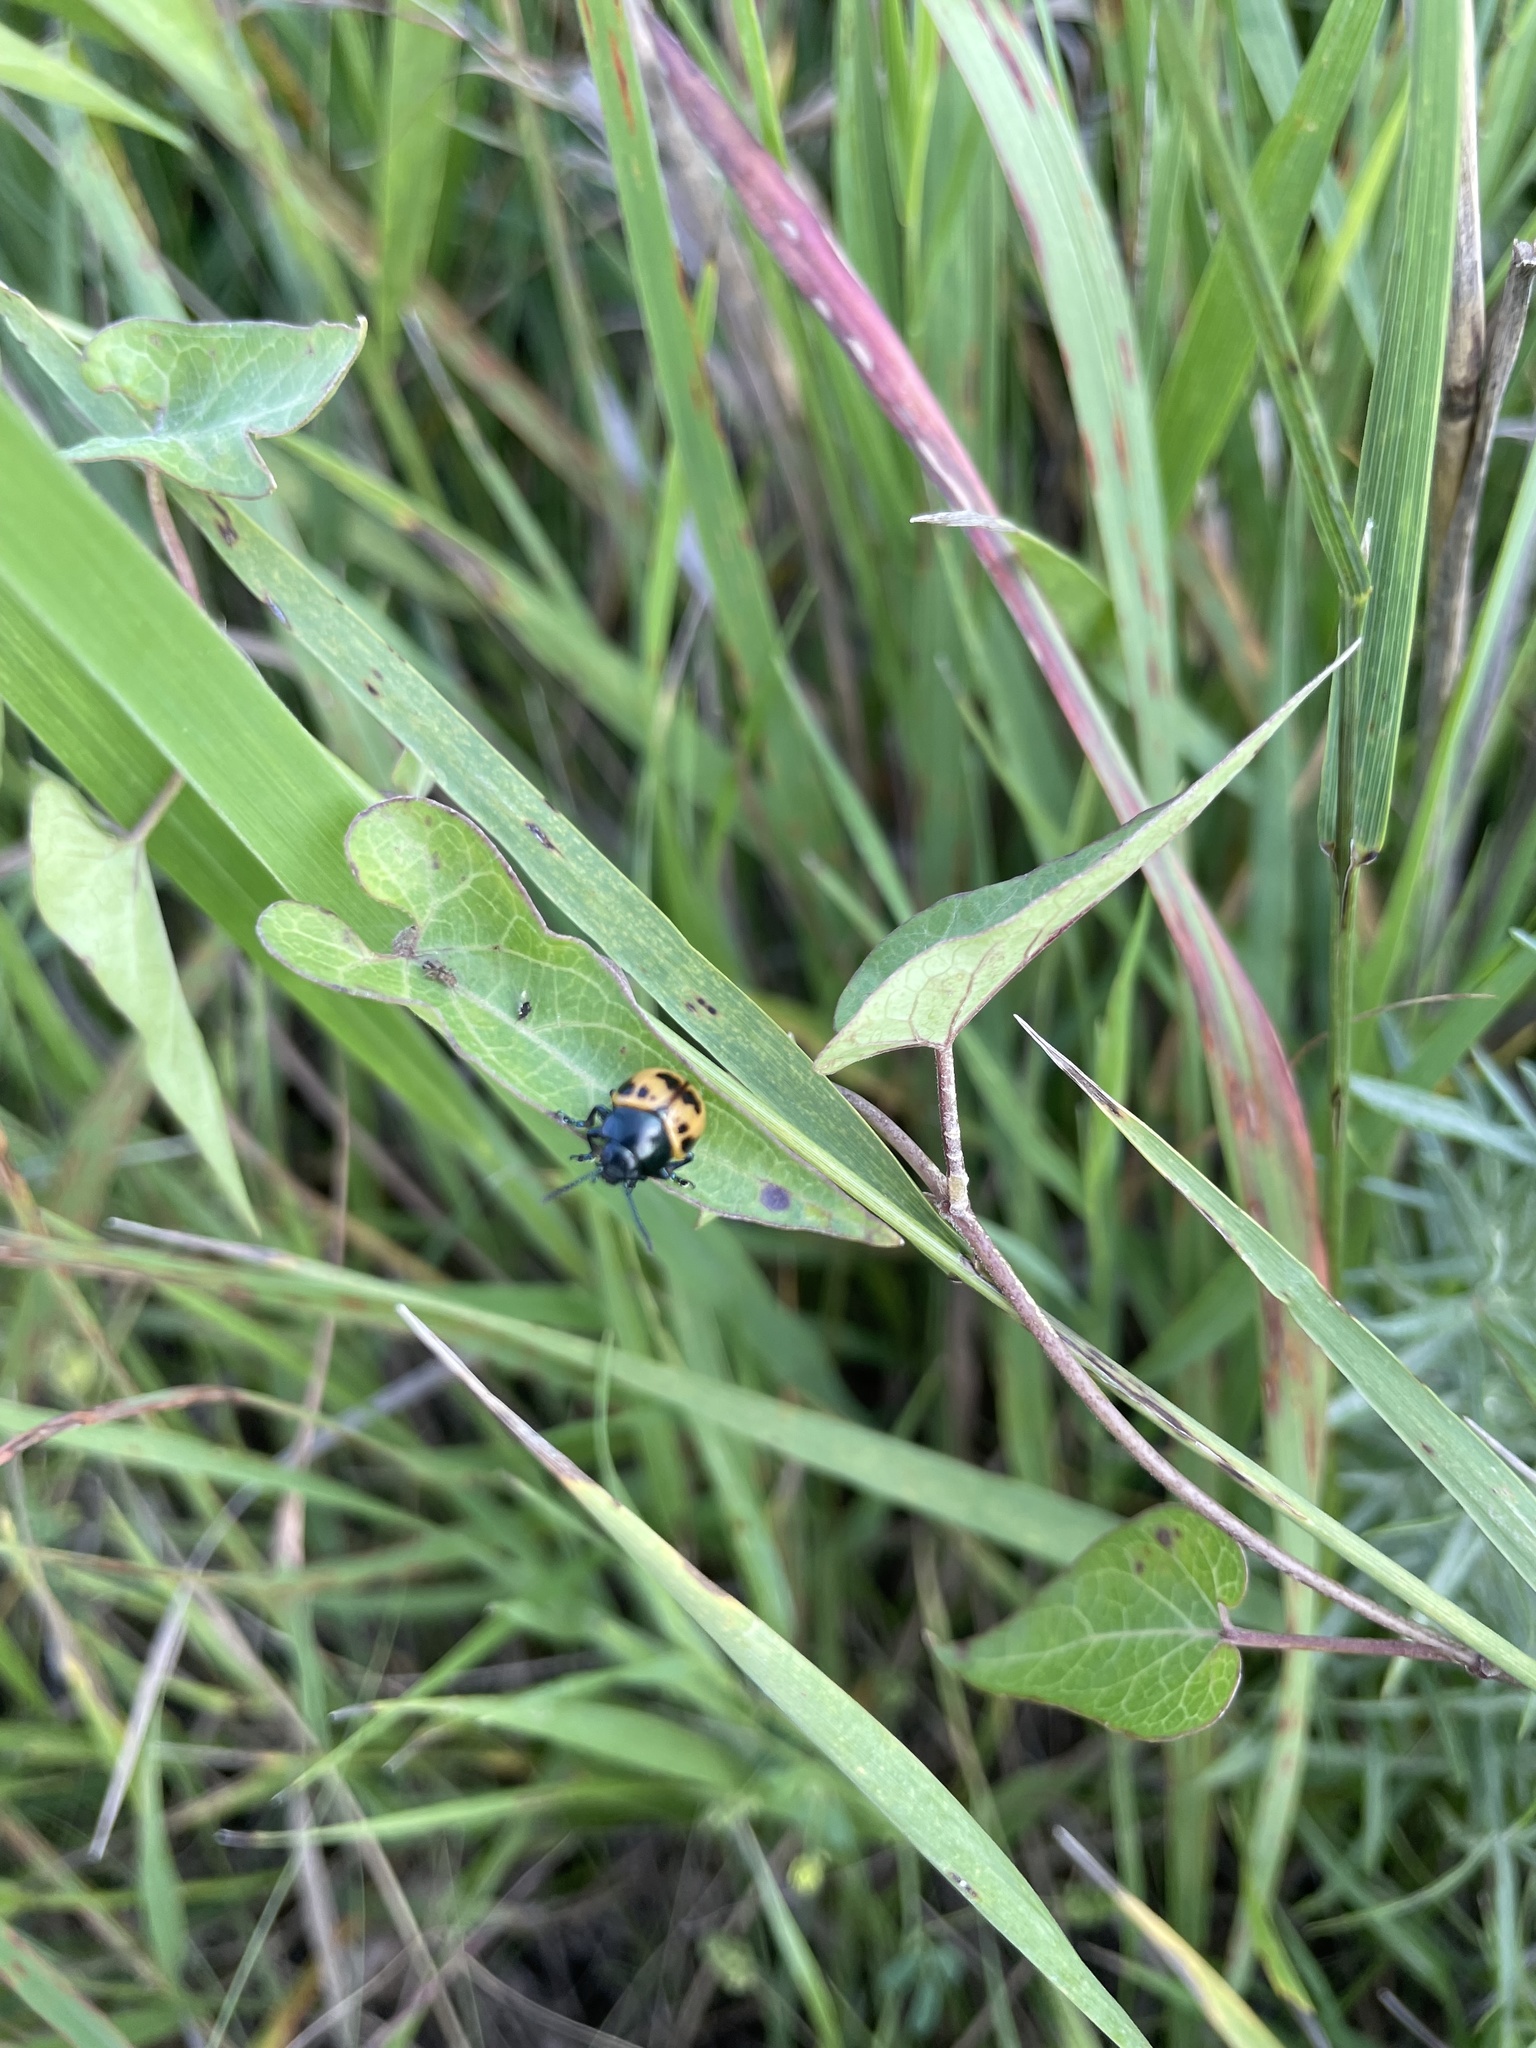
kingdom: Animalia
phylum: Arthropoda
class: Insecta
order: Coleoptera
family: Chrysomelidae
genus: Labidomera
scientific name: Labidomera clivicollis
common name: Swamp milkweed leaf beetle
